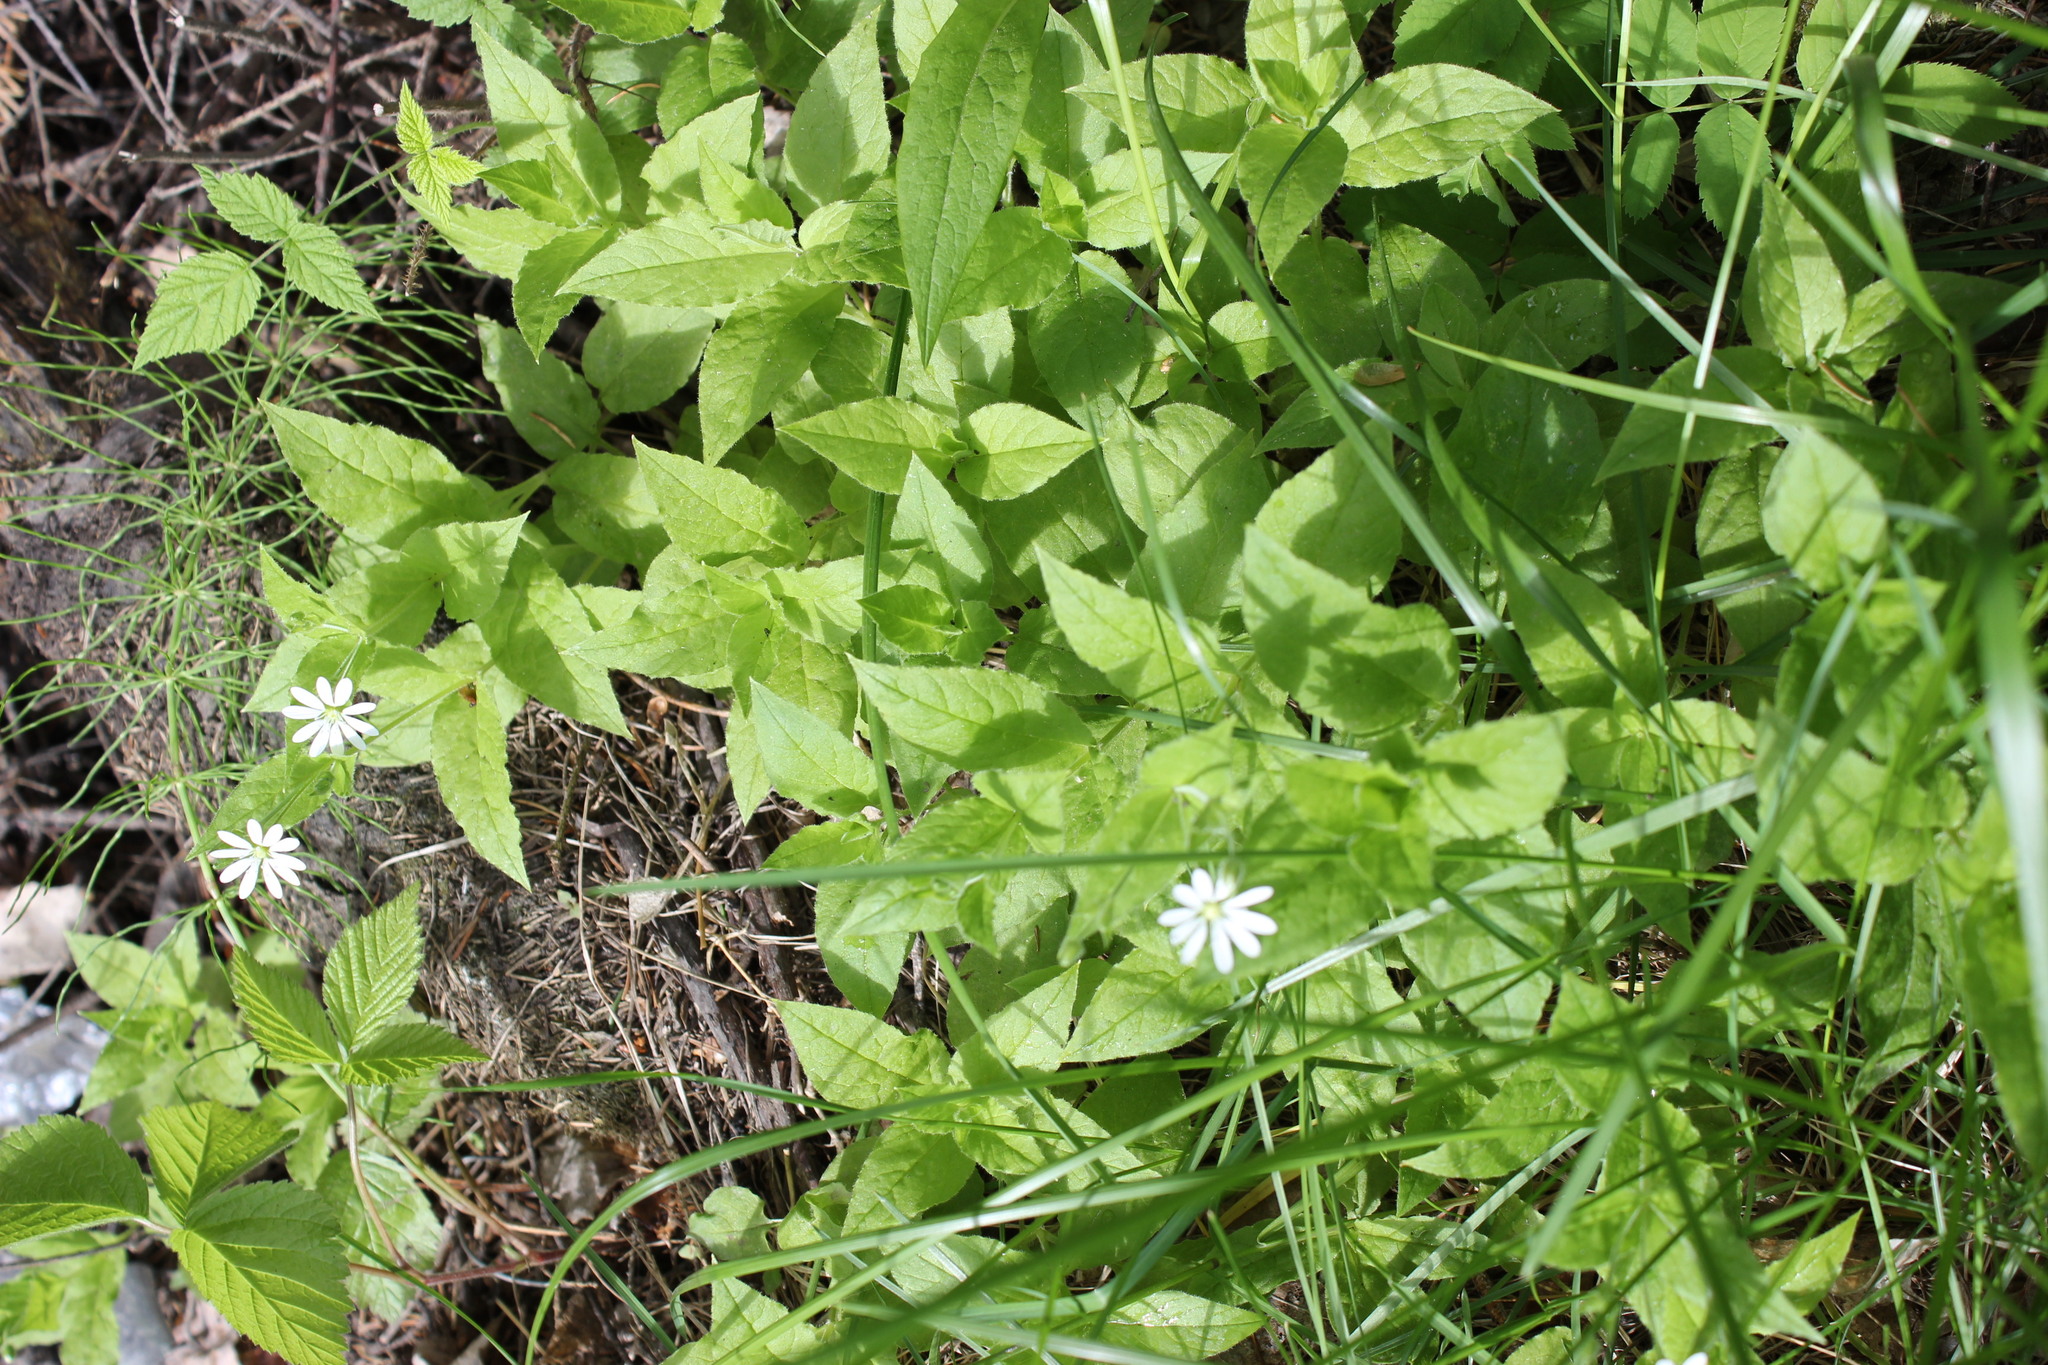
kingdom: Plantae
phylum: Tracheophyta
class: Magnoliopsida
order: Caryophyllales
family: Caryophyllaceae
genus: Stellaria
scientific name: Stellaria bungeana
